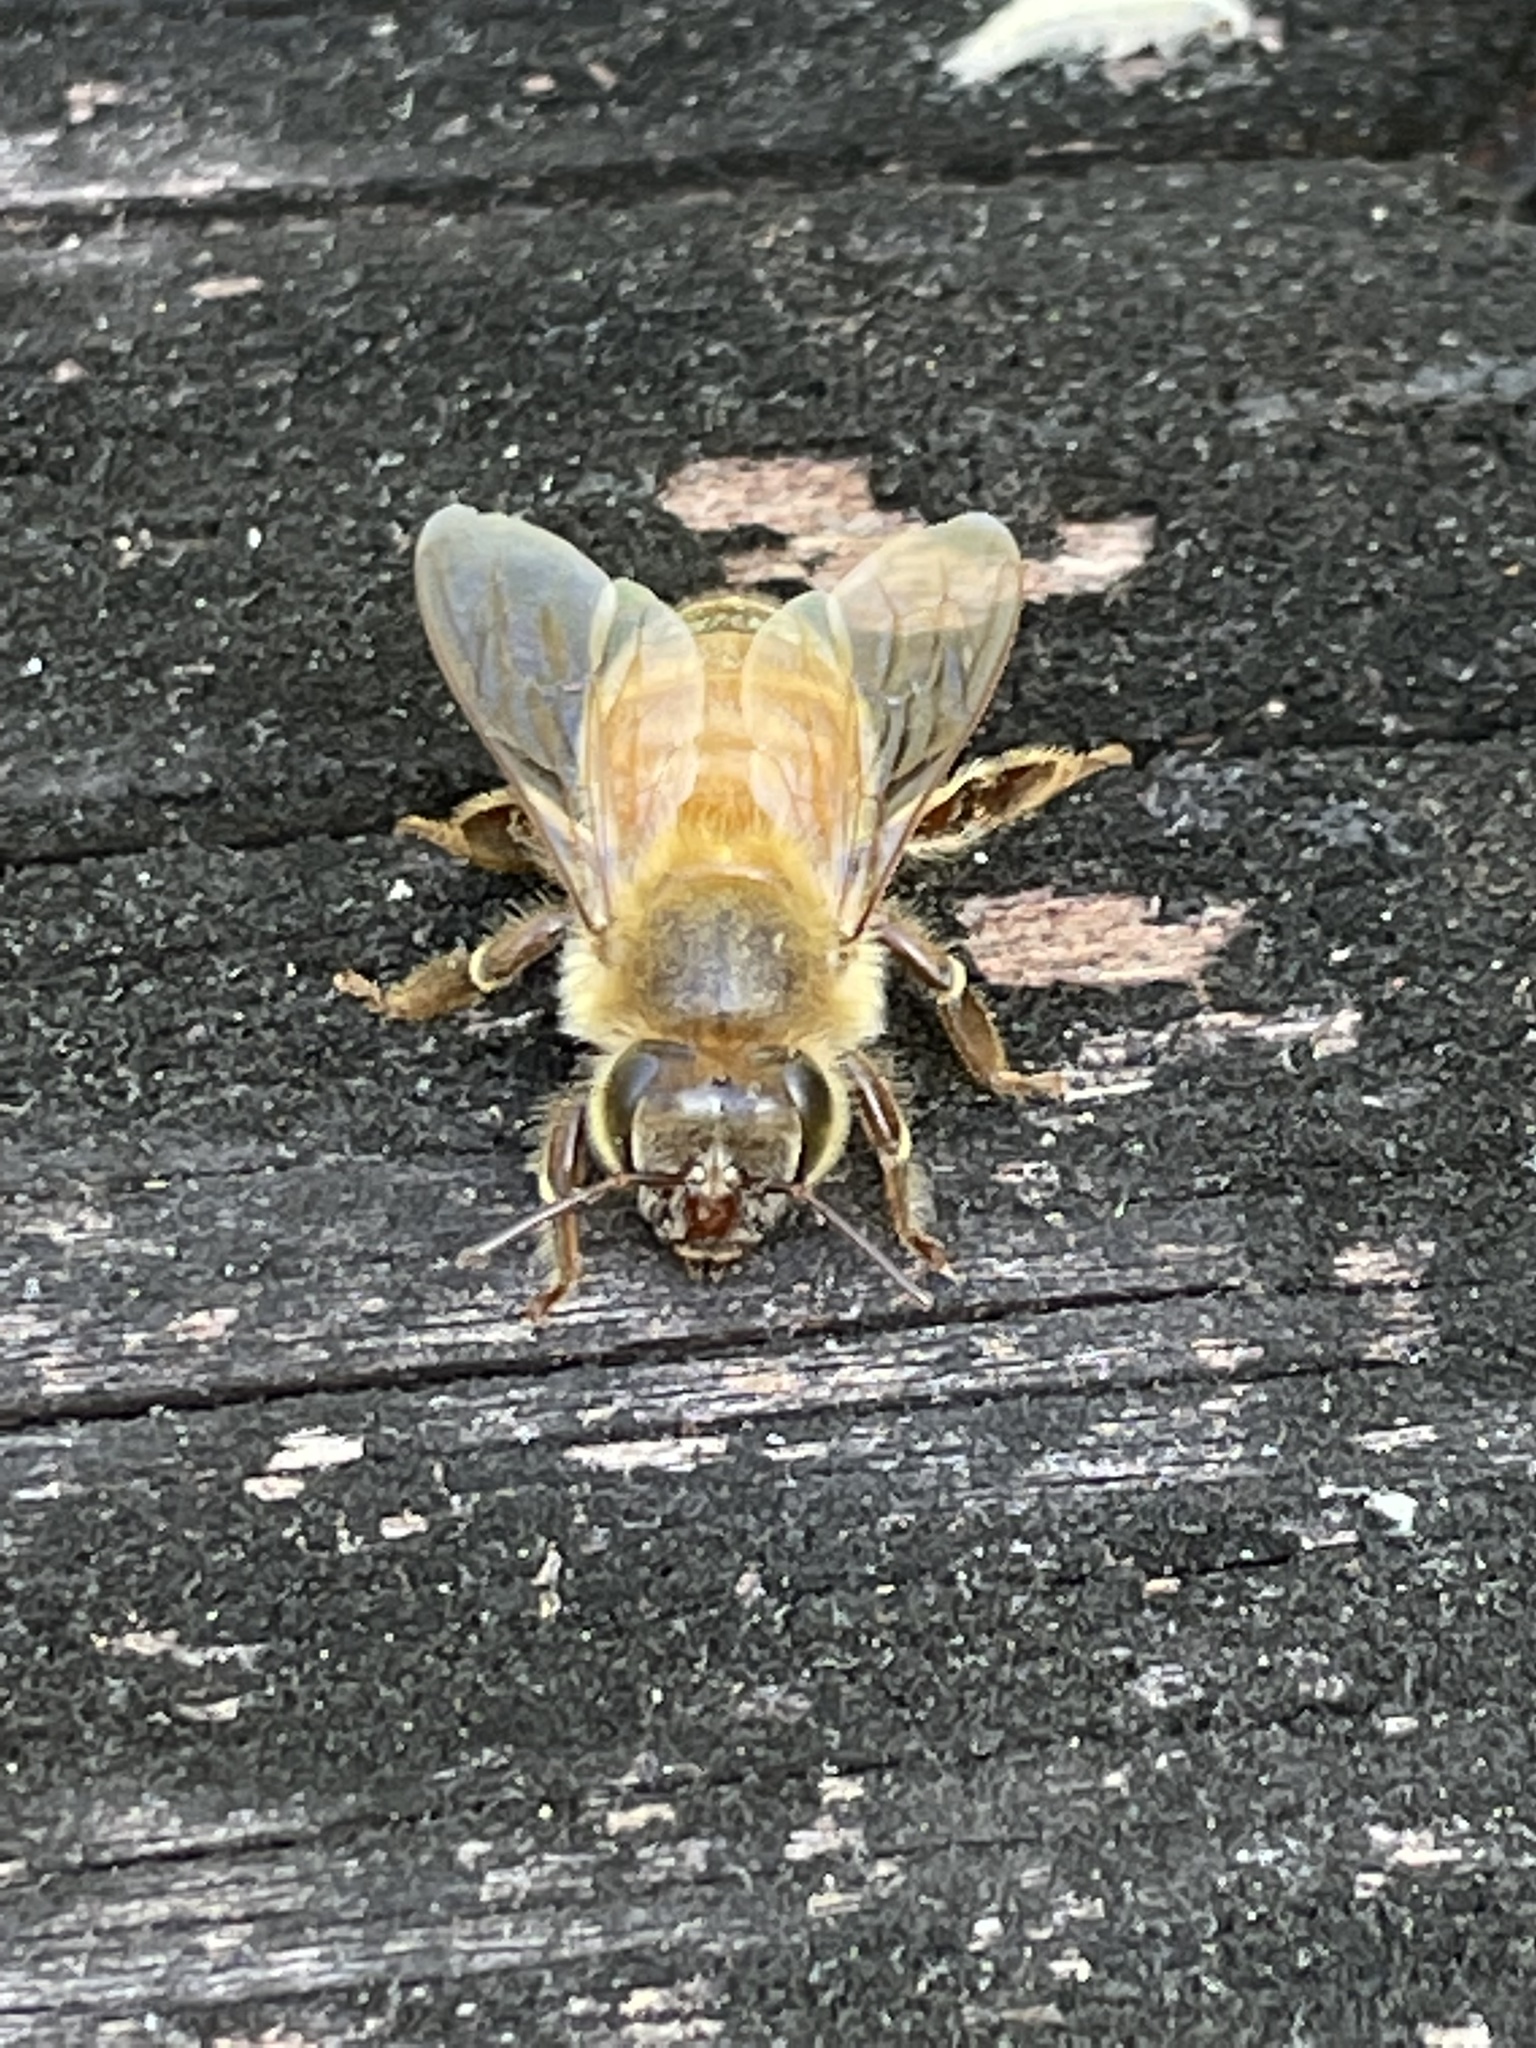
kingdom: Animalia
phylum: Arthropoda
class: Insecta
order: Hymenoptera
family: Apidae
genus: Apis
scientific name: Apis mellifera
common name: Honey bee
